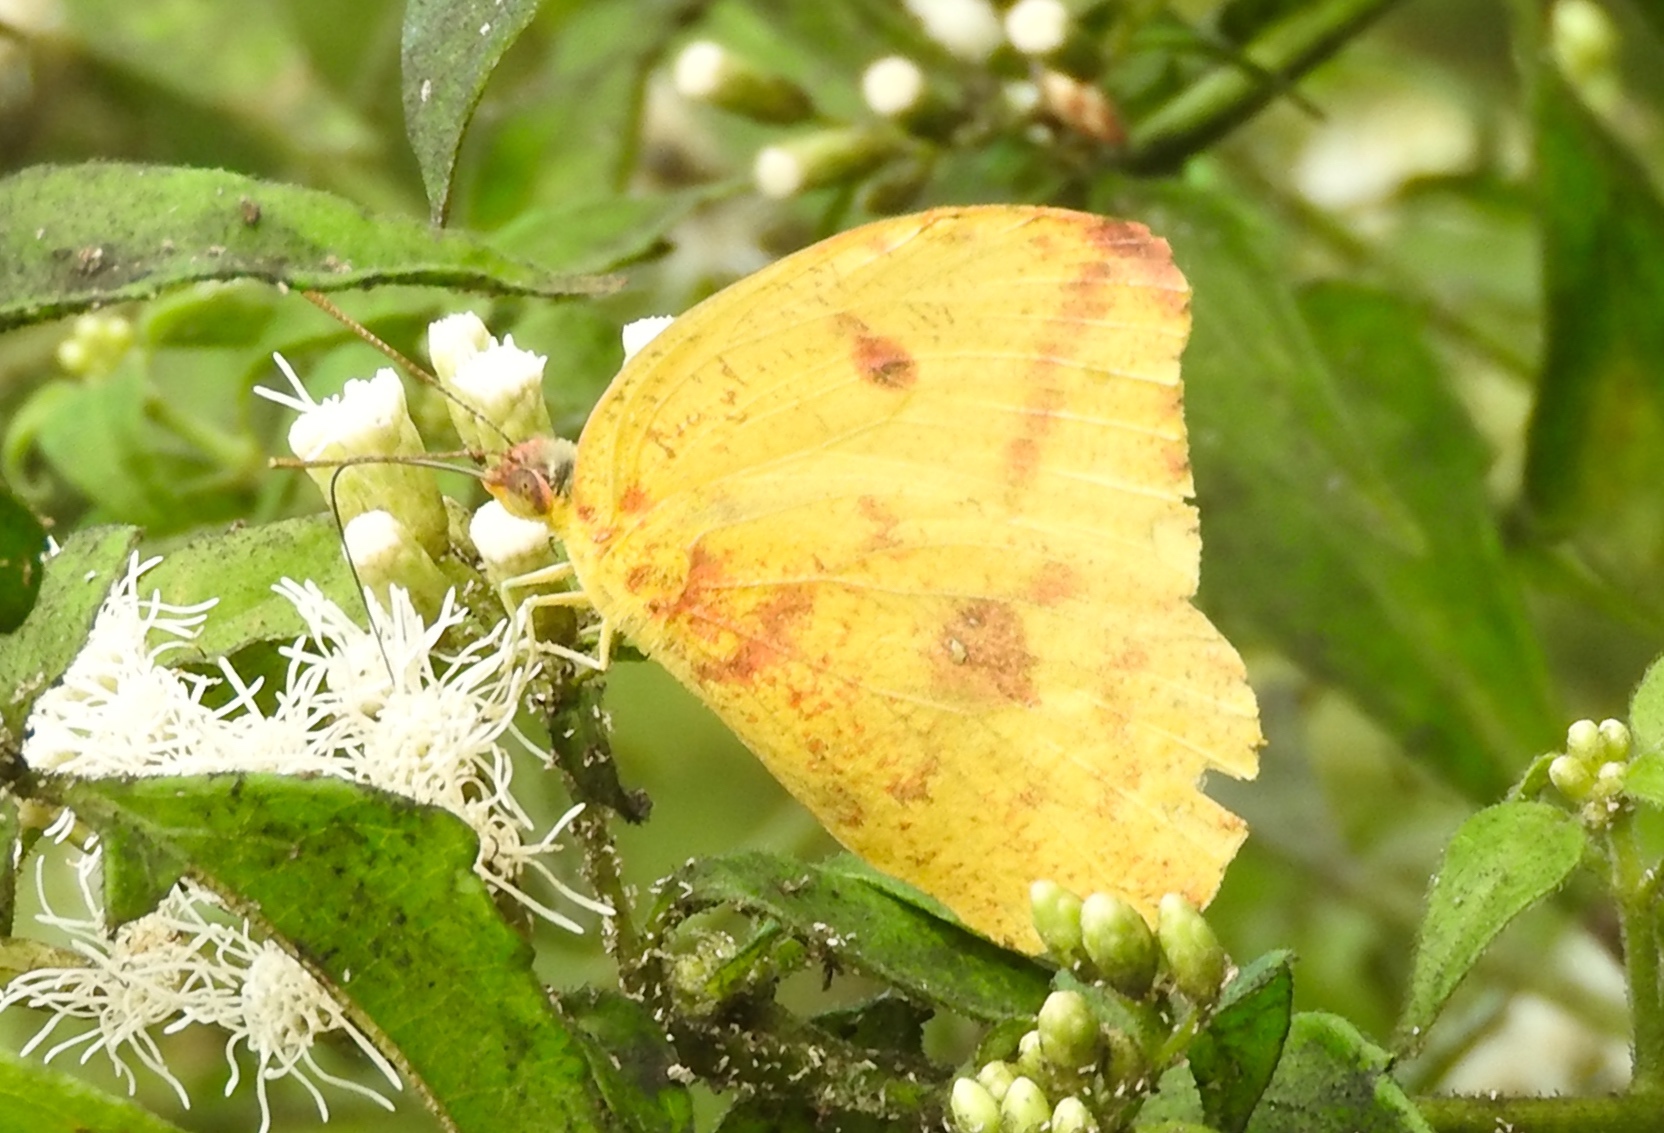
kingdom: Animalia
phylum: Arthropoda
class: Insecta
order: Lepidoptera
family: Pieridae
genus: Phoebis
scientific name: Phoebis agarithe
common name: Large orange sulphur
